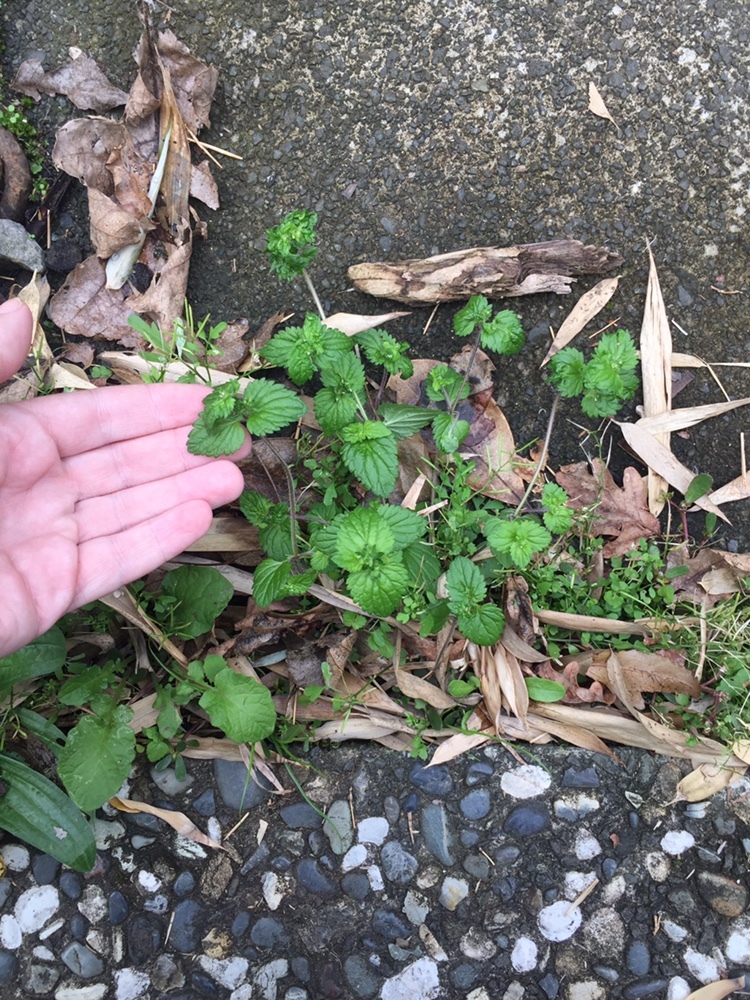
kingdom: Plantae
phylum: Tracheophyta
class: Magnoliopsida
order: Lamiales
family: Plantaginaceae
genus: Veronica
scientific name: Veronica javanica
